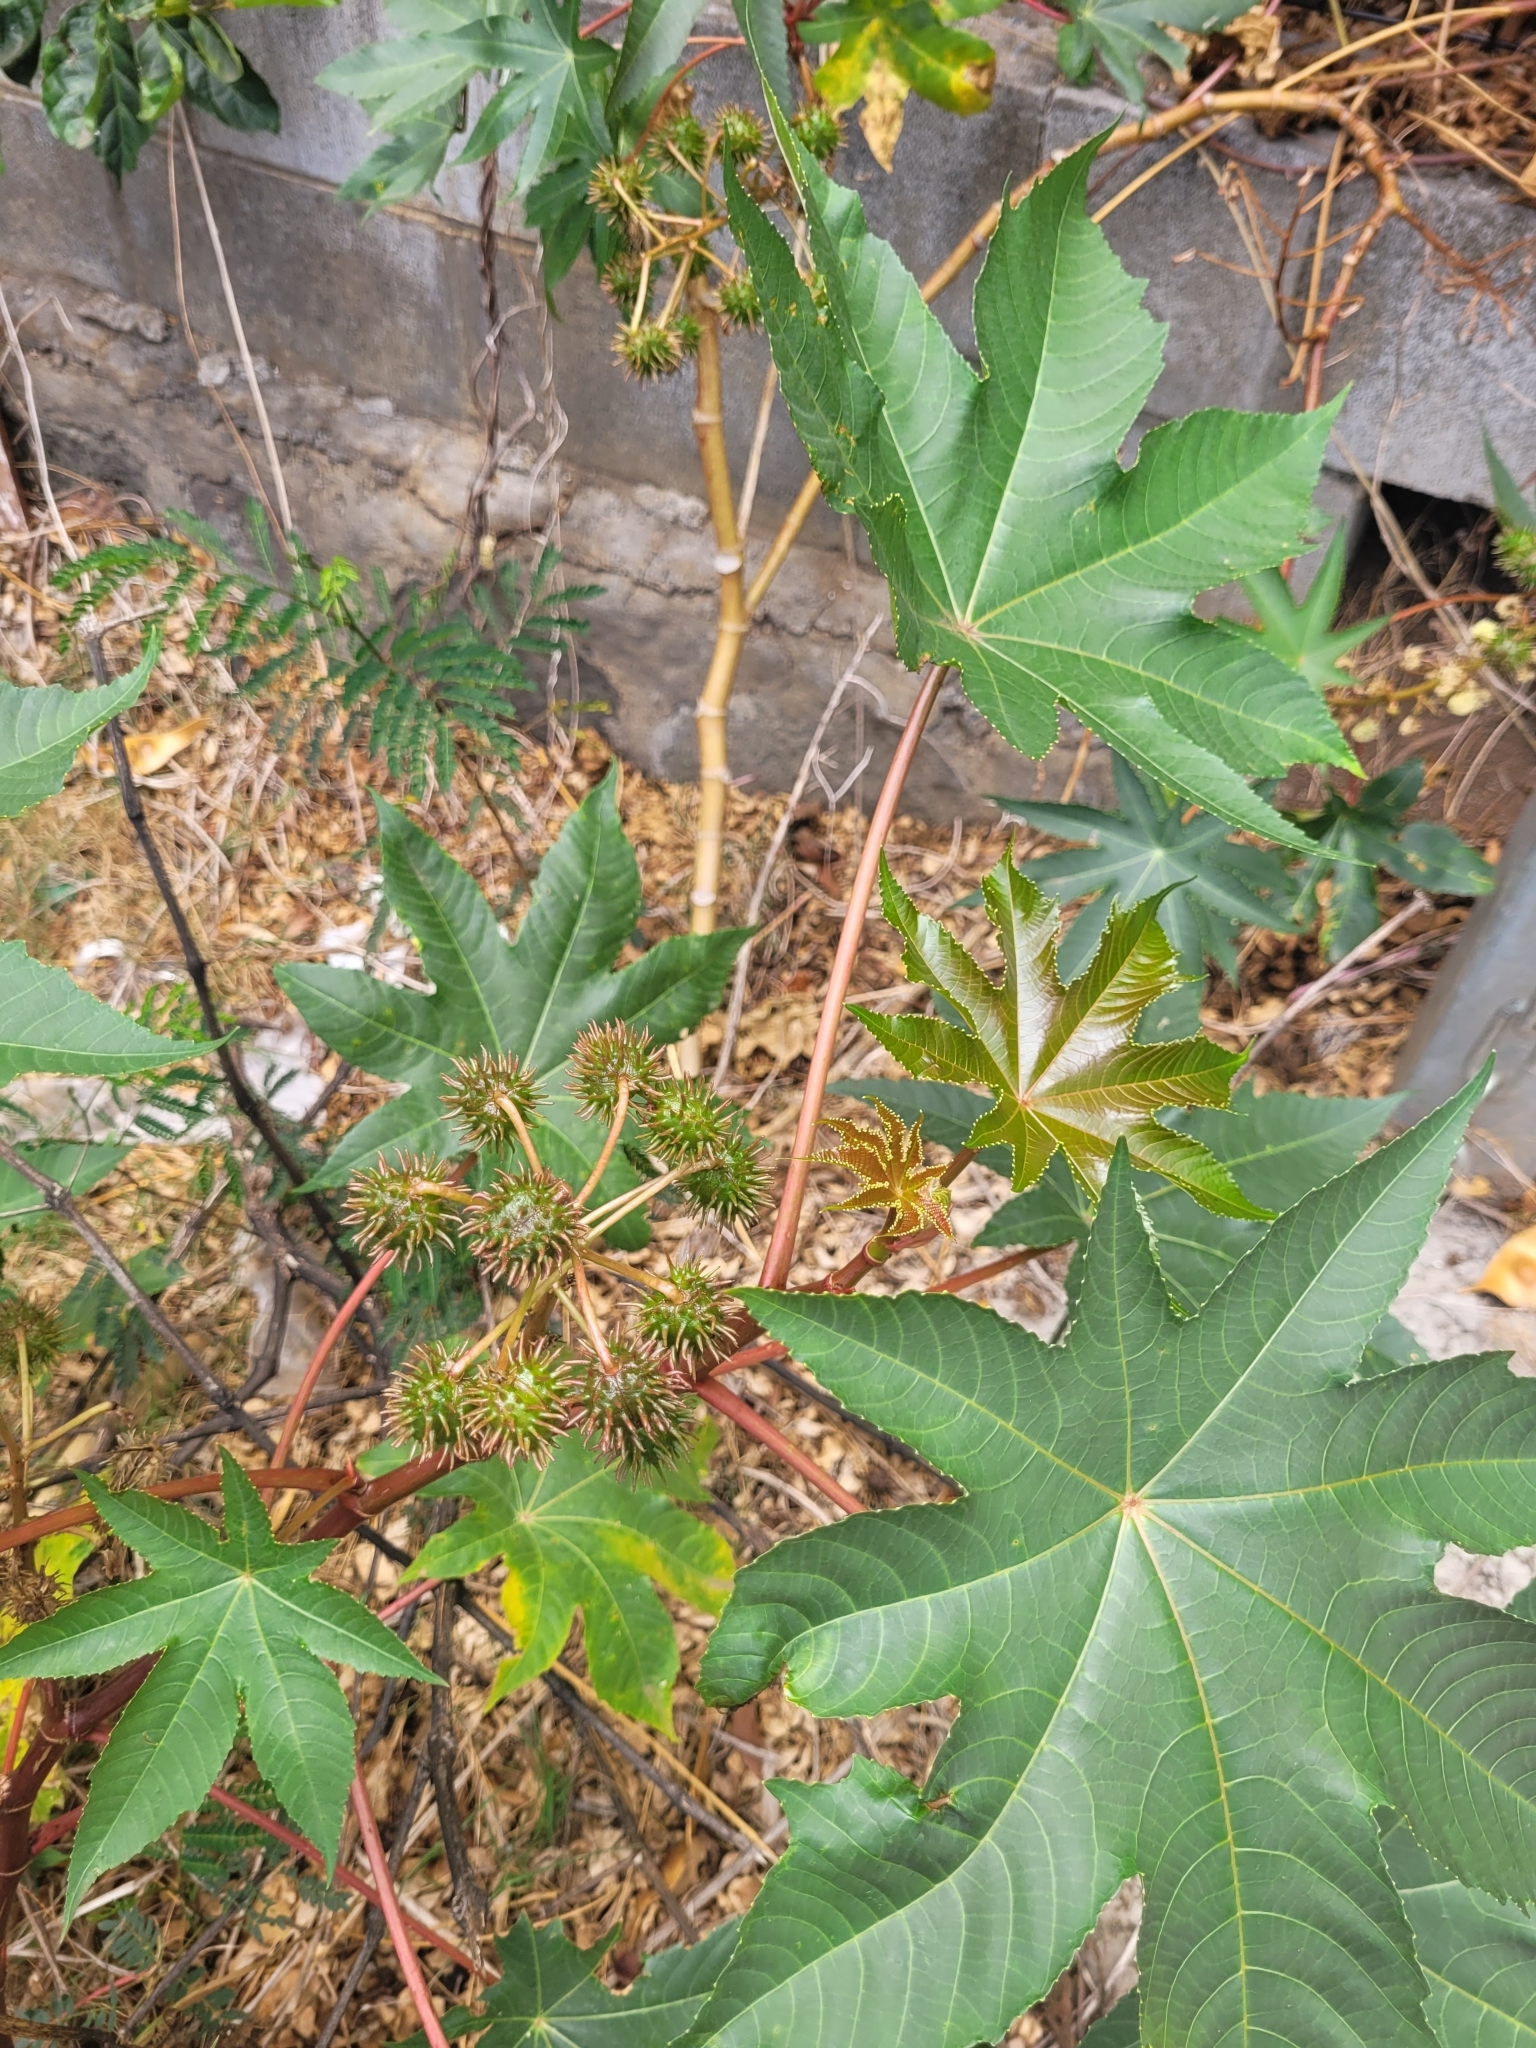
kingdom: Plantae
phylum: Tracheophyta
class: Magnoliopsida
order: Malpighiales
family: Euphorbiaceae
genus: Ricinus
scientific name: Ricinus communis
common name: Castor-oil-plant
